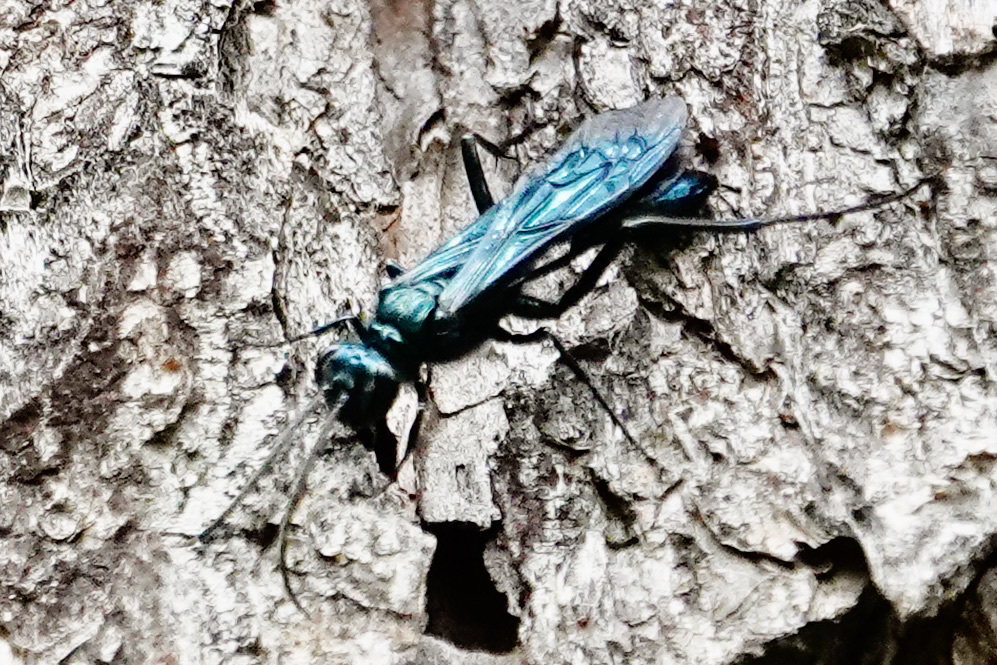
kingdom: Animalia
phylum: Arthropoda
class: Insecta
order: Hymenoptera
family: Sphecidae
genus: Chalybion
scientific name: Chalybion californicum
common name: Mud dauber
